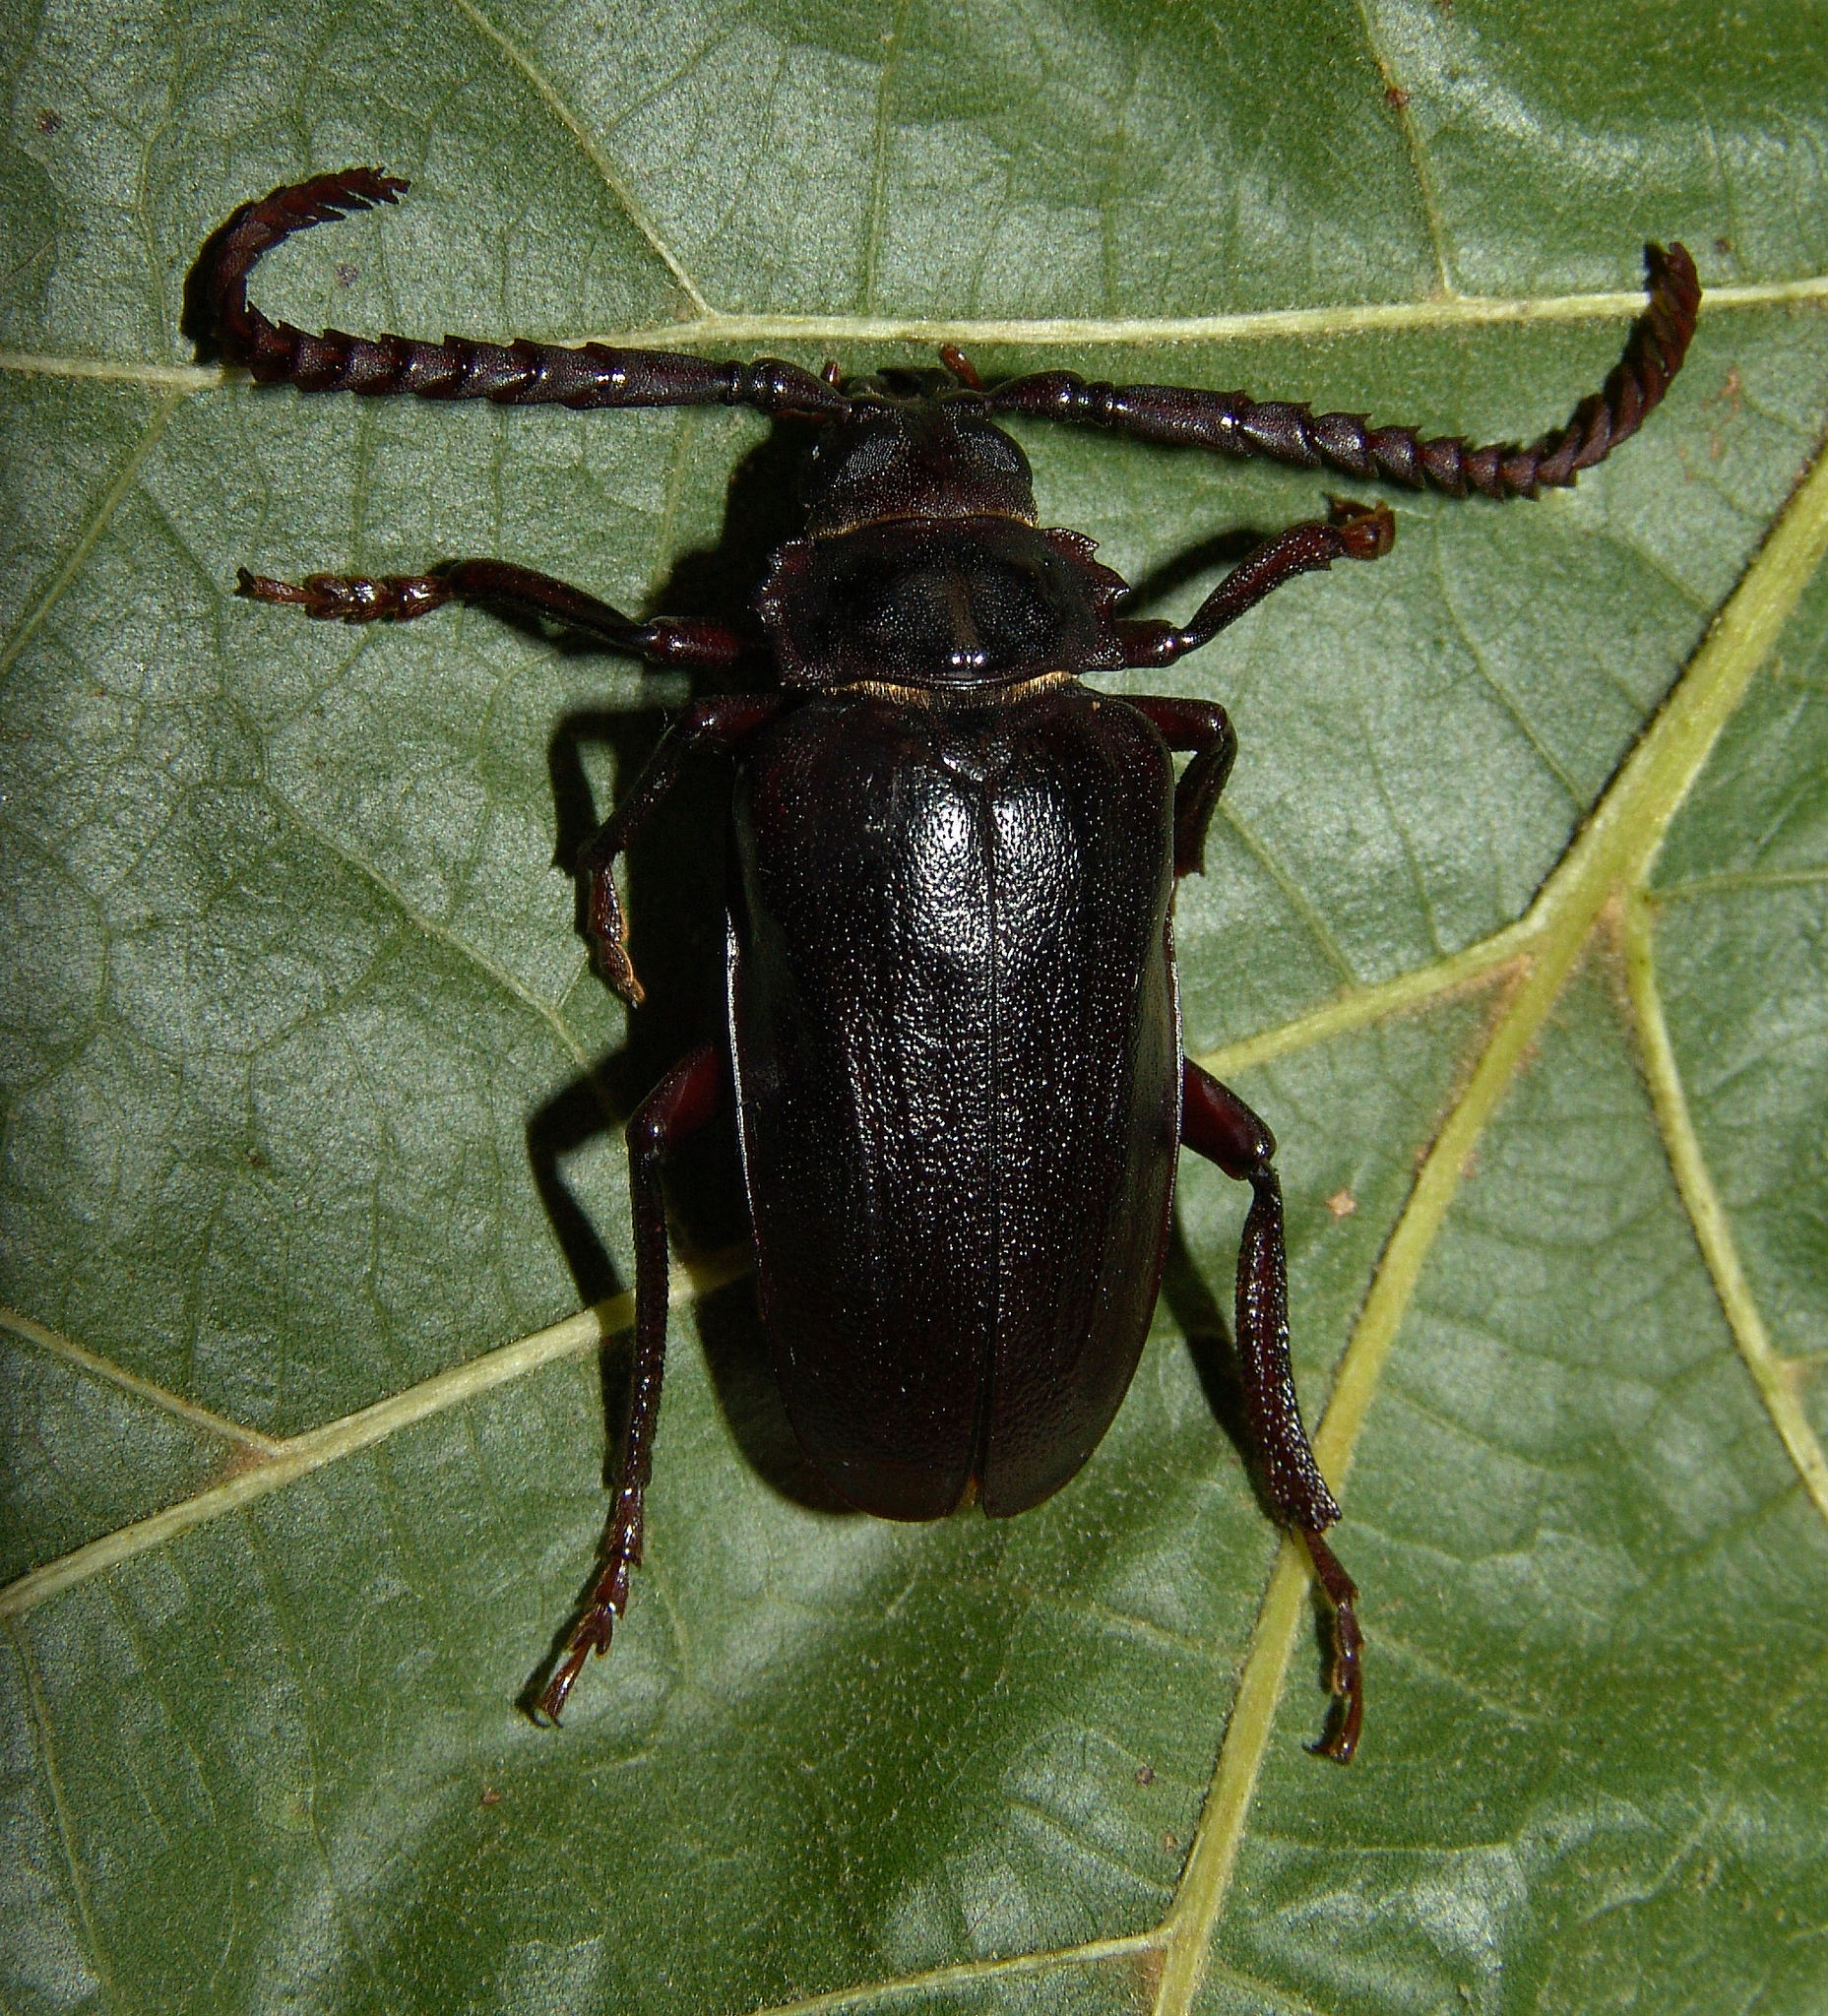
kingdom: Animalia
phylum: Arthropoda
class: Insecta
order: Coleoptera
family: Cerambycidae
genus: Prionus
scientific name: Prionus imbricornis
